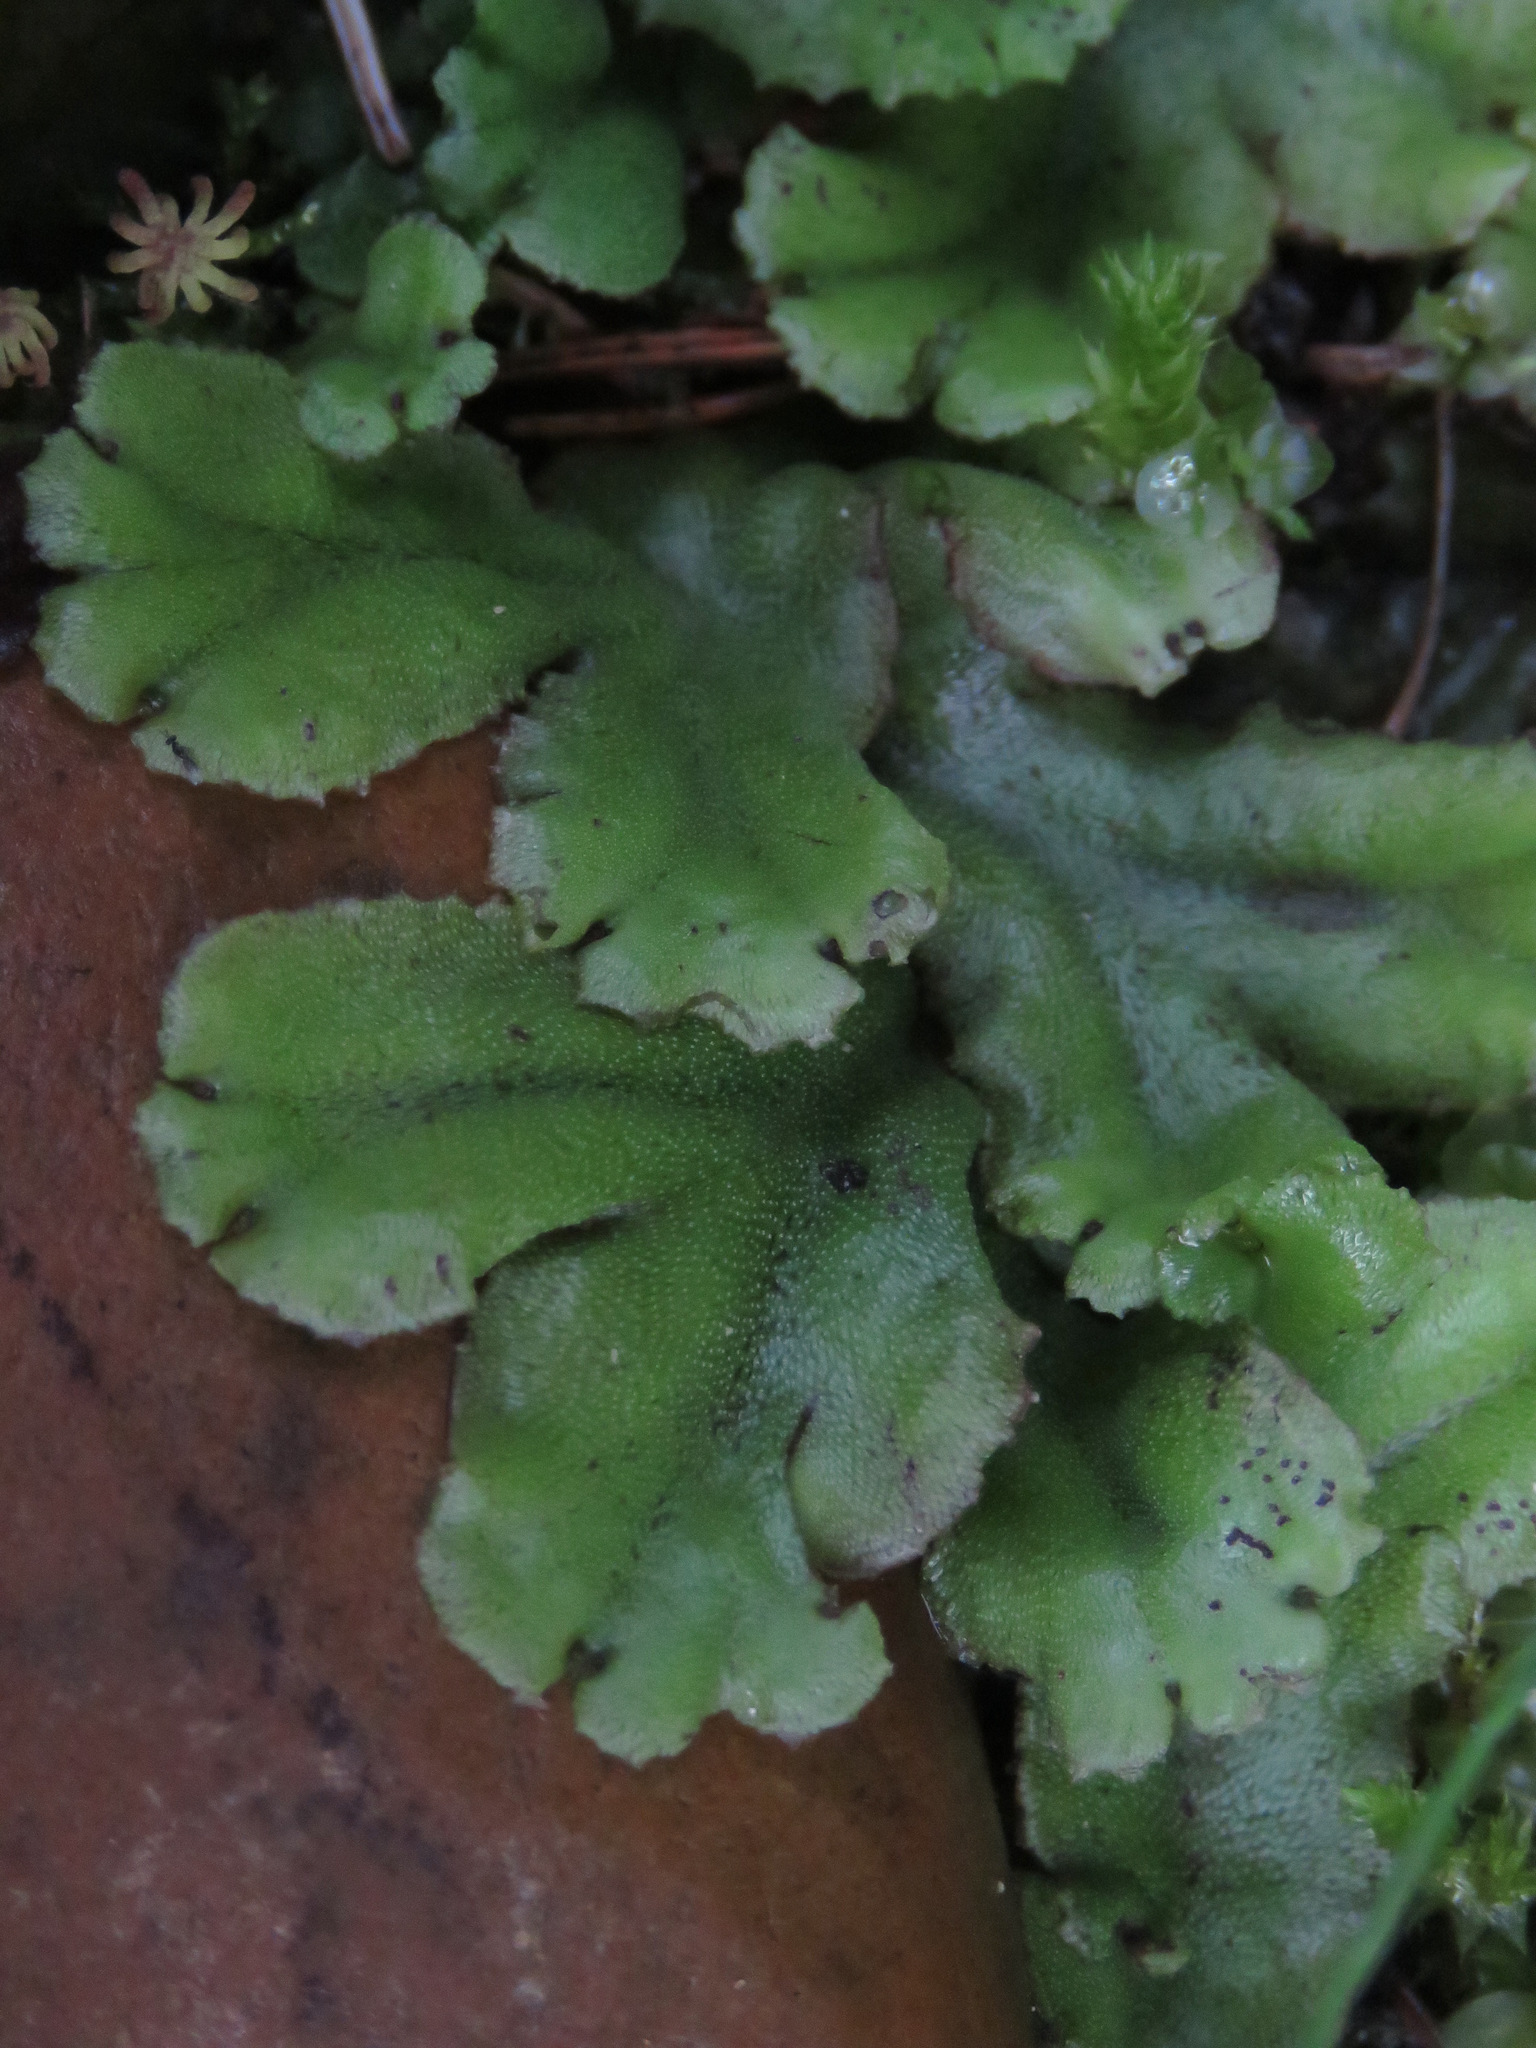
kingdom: Plantae
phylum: Marchantiophyta
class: Marchantiopsida
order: Marchantiales
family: Marchantiaceae
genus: Marchantia
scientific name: Marchantia polymorpha
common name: Common liverwort
